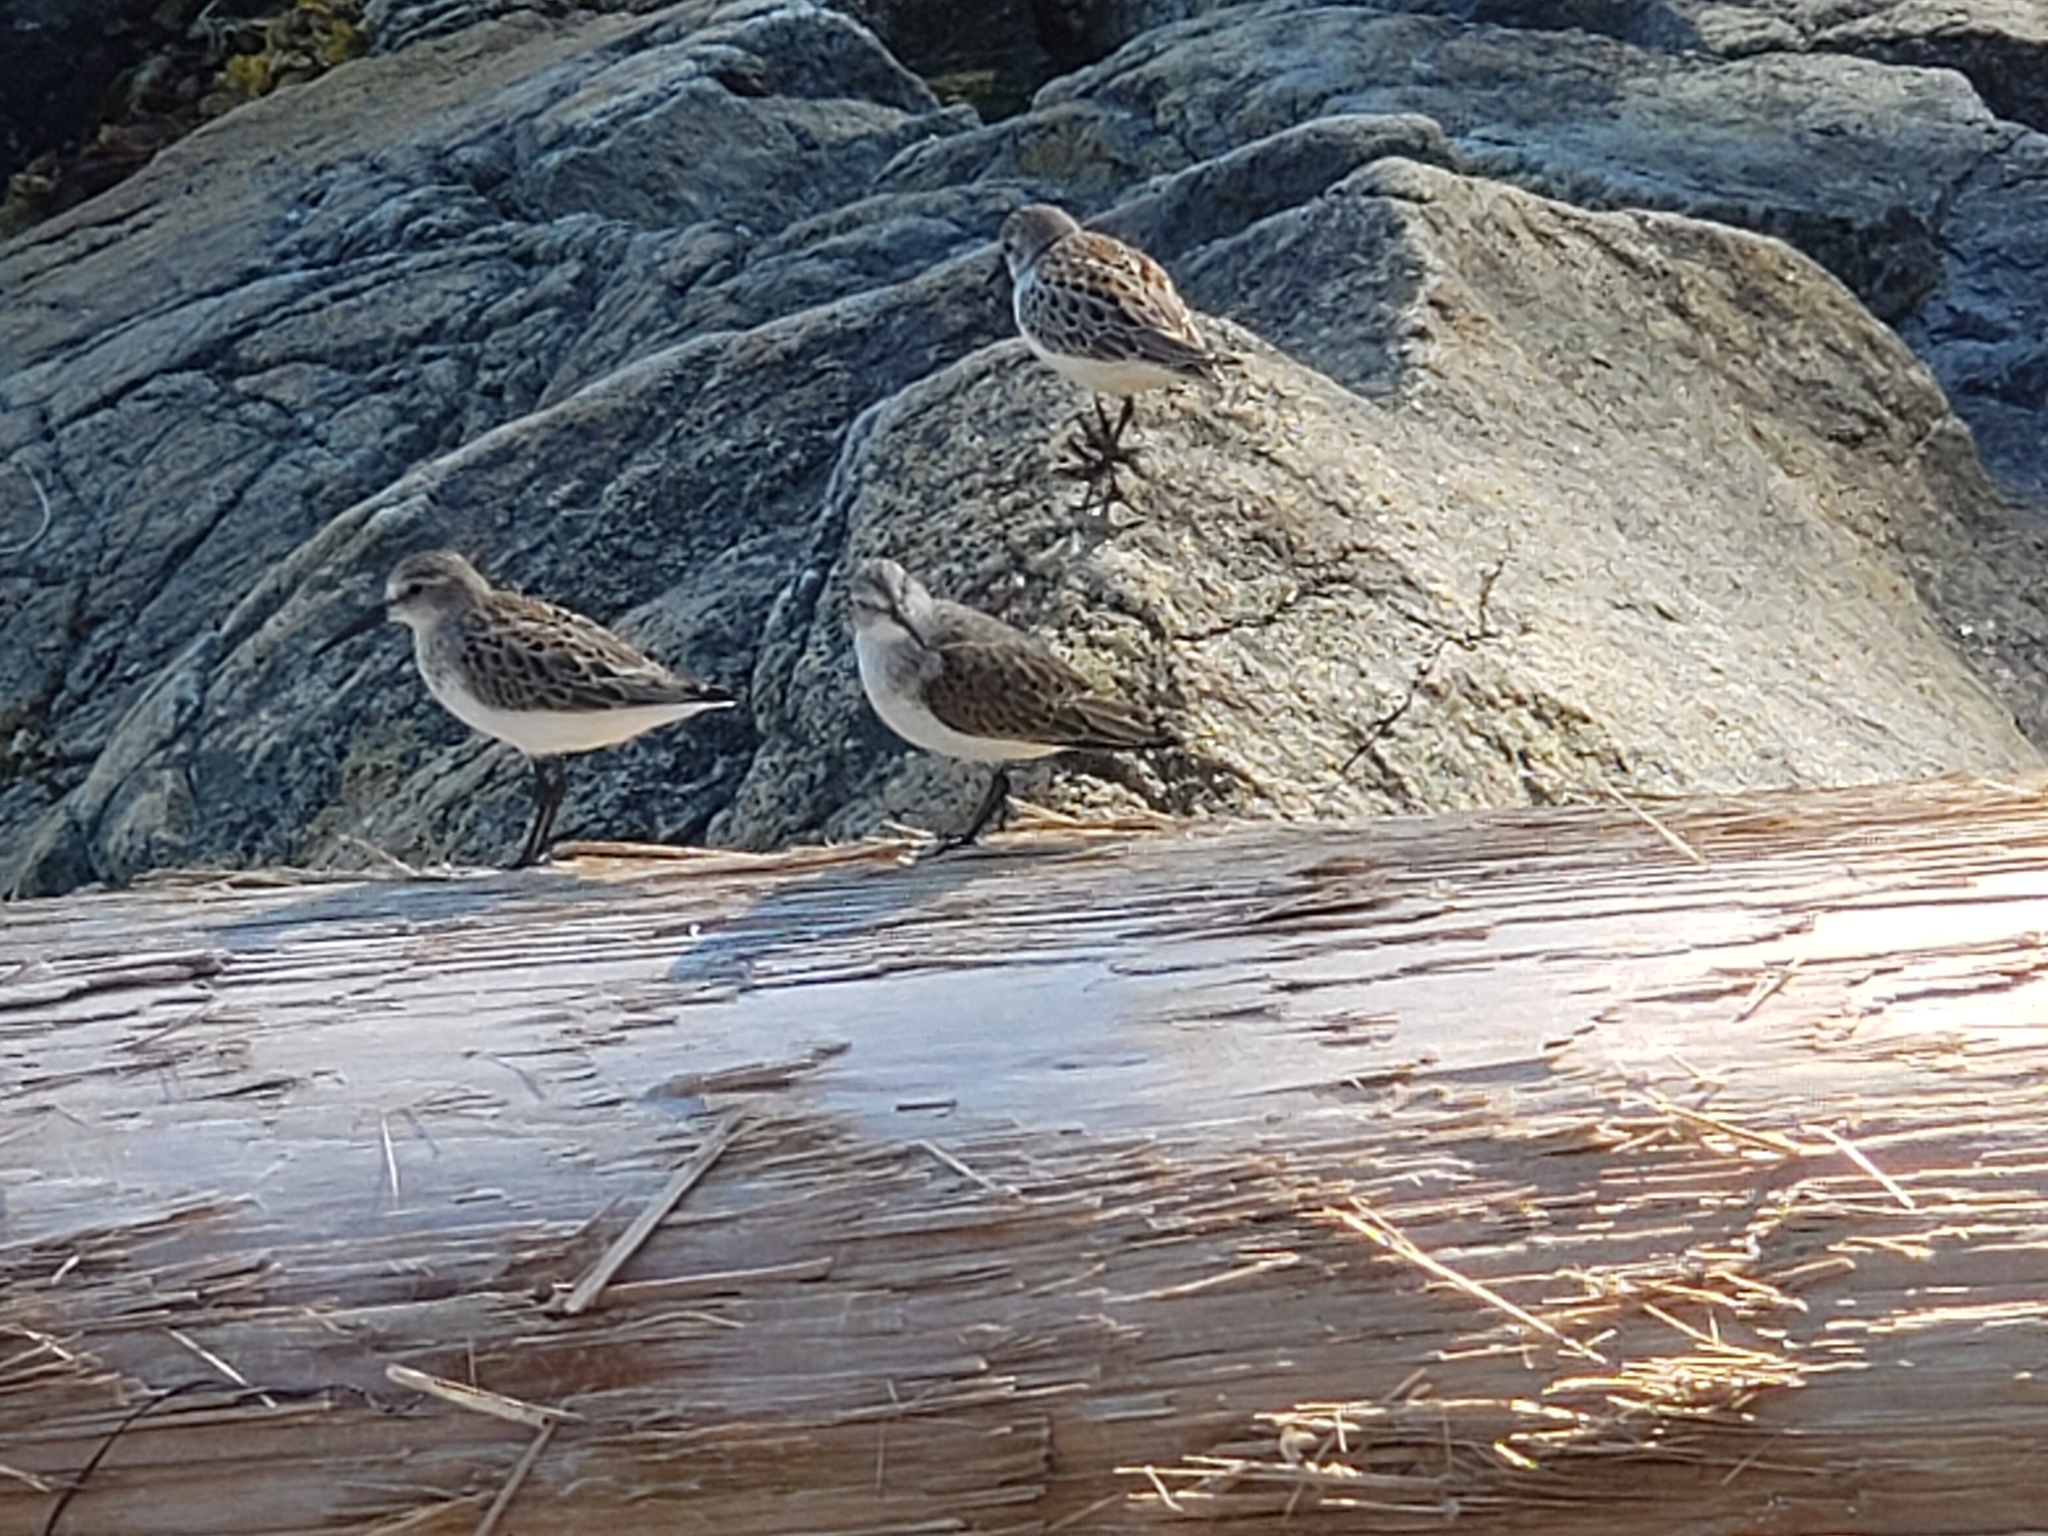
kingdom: Animalia
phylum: Chordata
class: Aves
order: Charadriiformes
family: Scolopacidae
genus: Calidris
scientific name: Calidris mauri
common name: Western sandpiper
